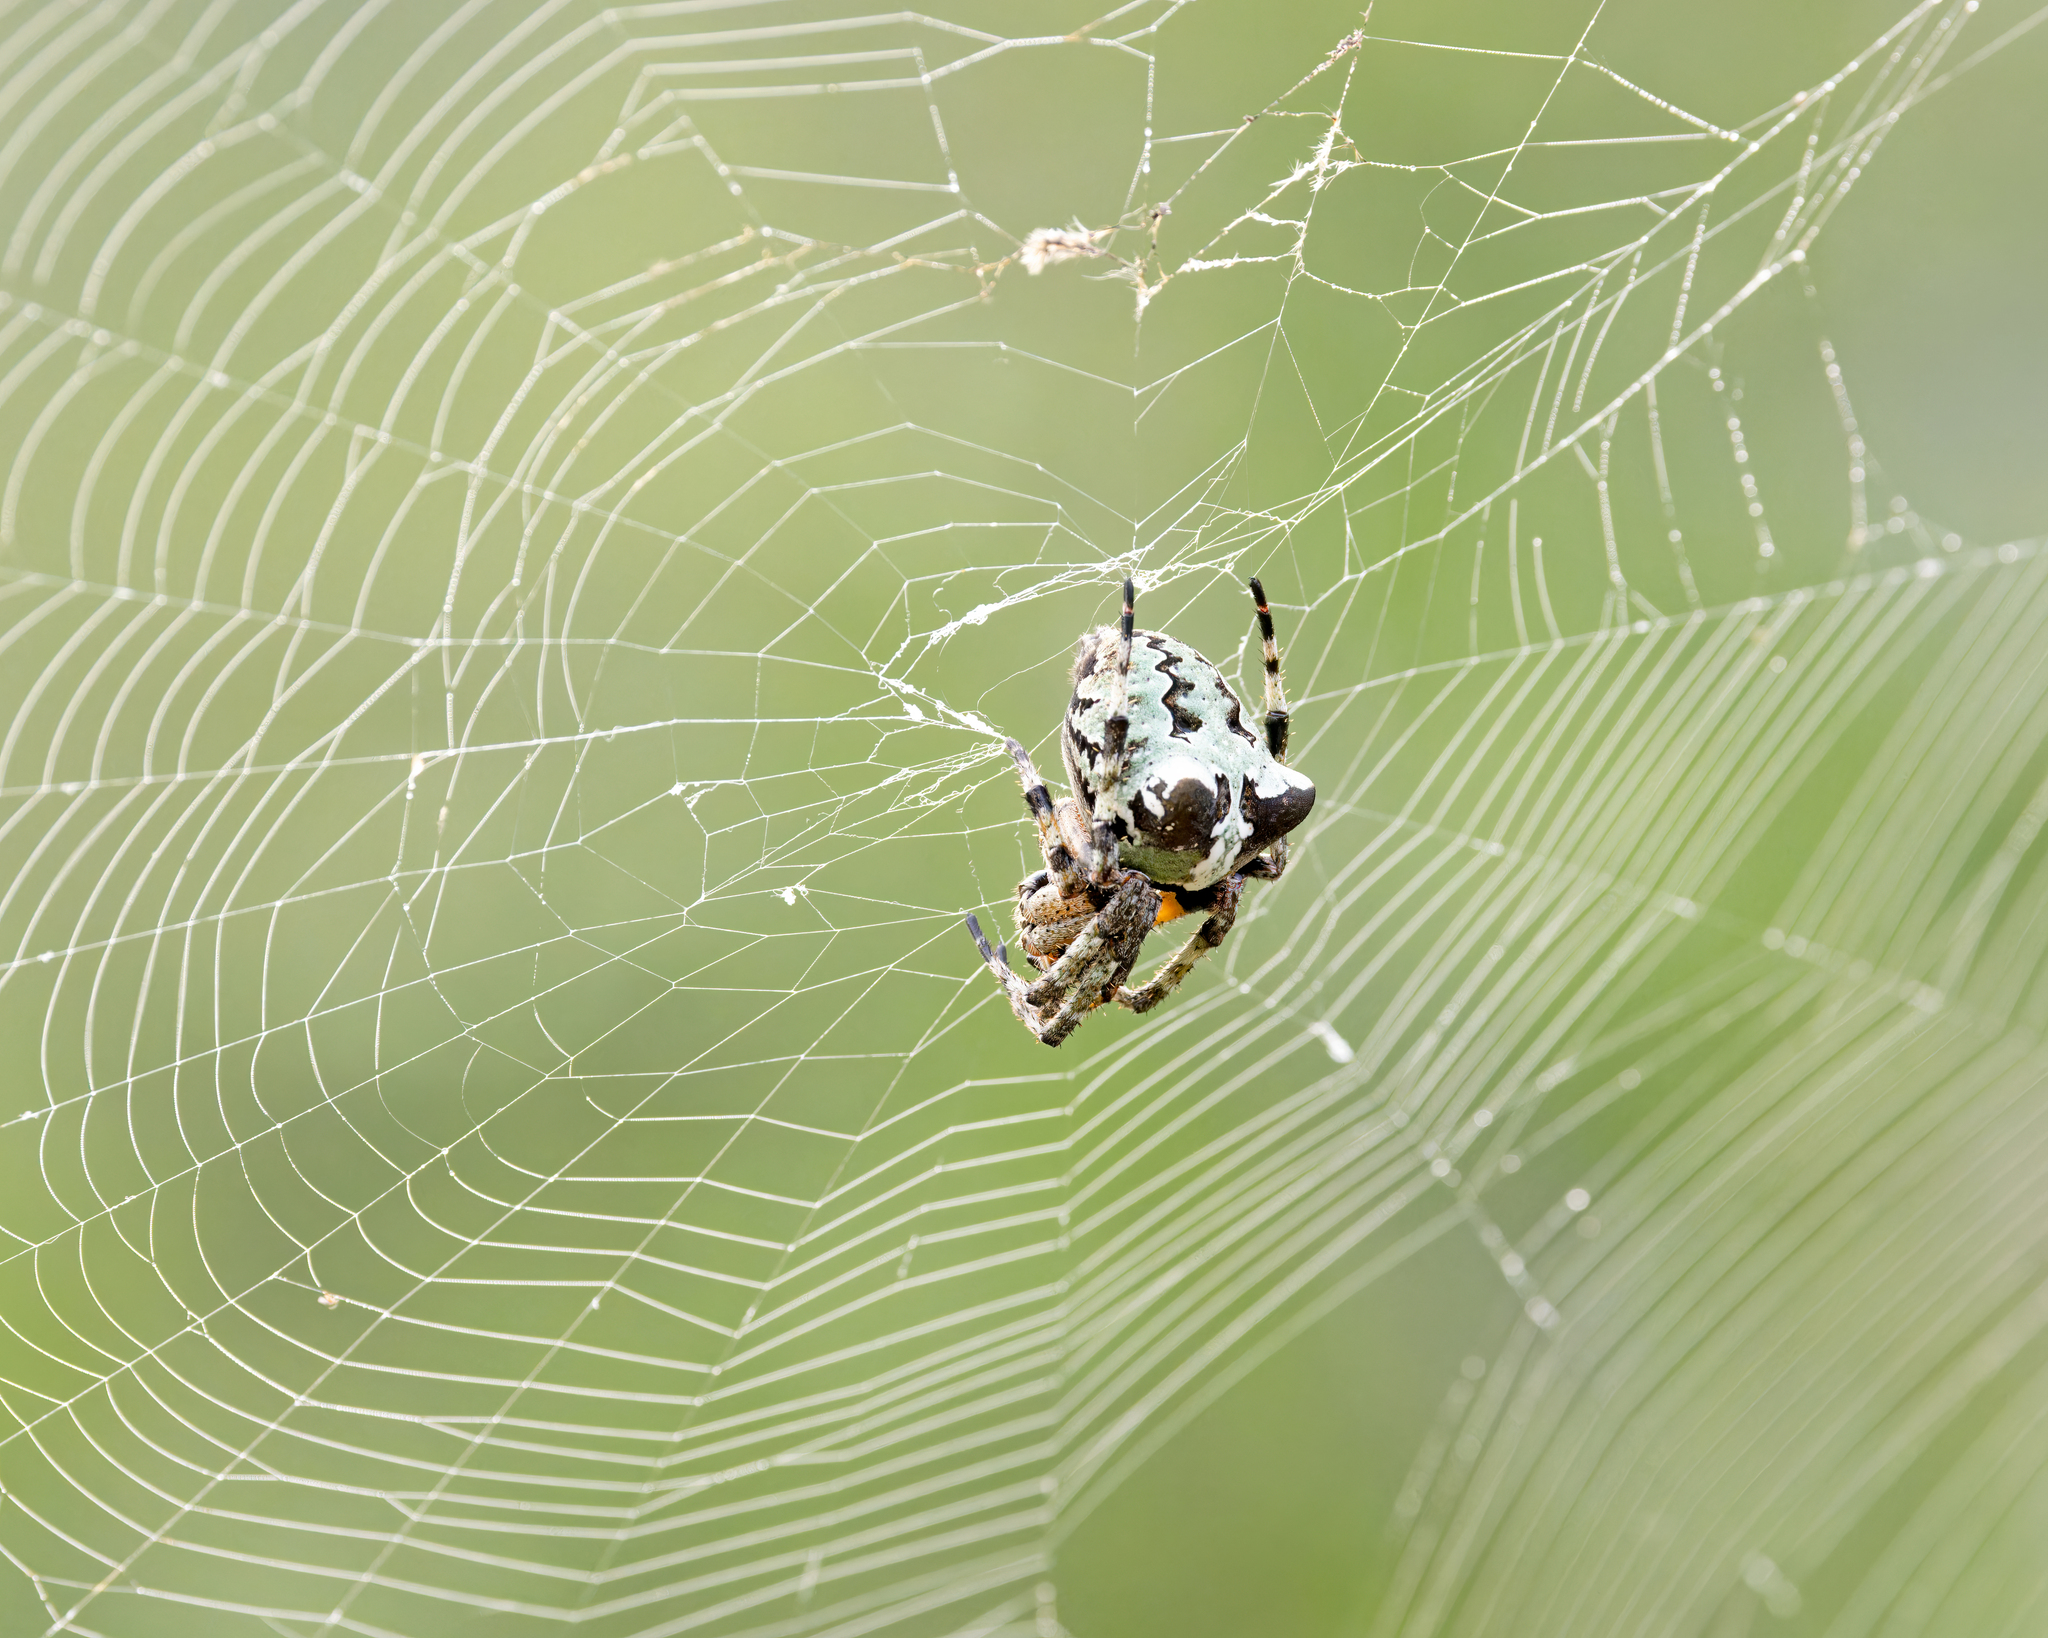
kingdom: Animalia
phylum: Arthropoda
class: Arachnida
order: Araneae
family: Araneidae
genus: Araneus
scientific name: Araneus bicentenarius
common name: Giant lichen orbweaver
